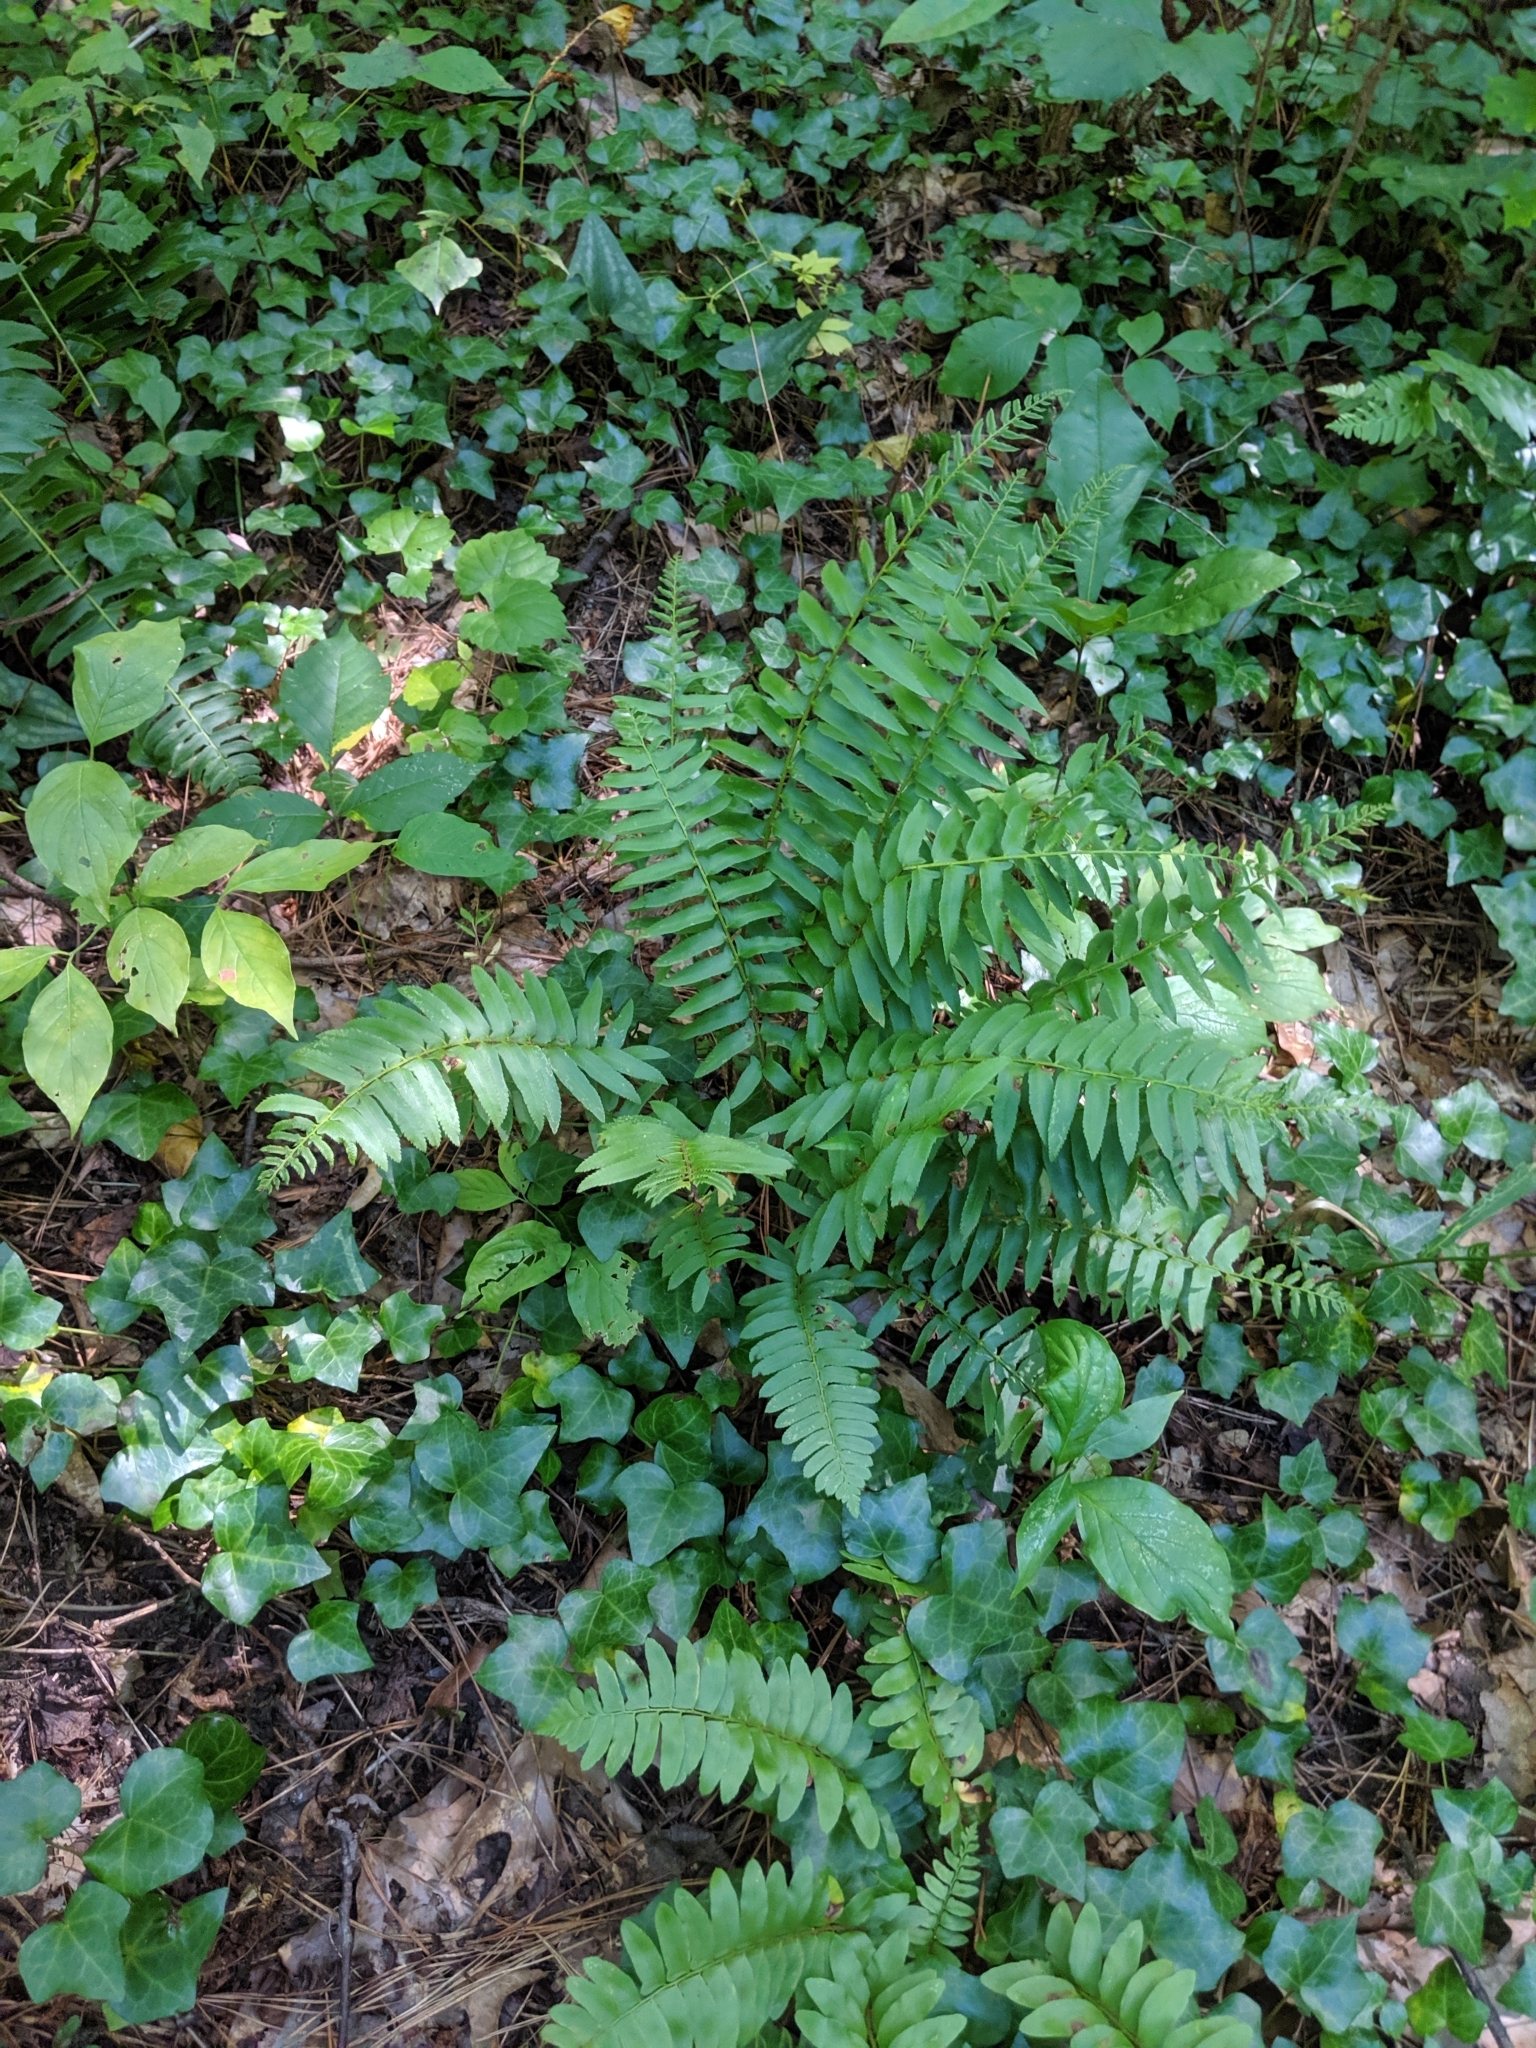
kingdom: Plantae
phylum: Tracheophyta
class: Polypodiopsida
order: Polypodiales
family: Dryopteridaceae
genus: Polystichum
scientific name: Polystichum acrostichoides
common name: Christmas fern
